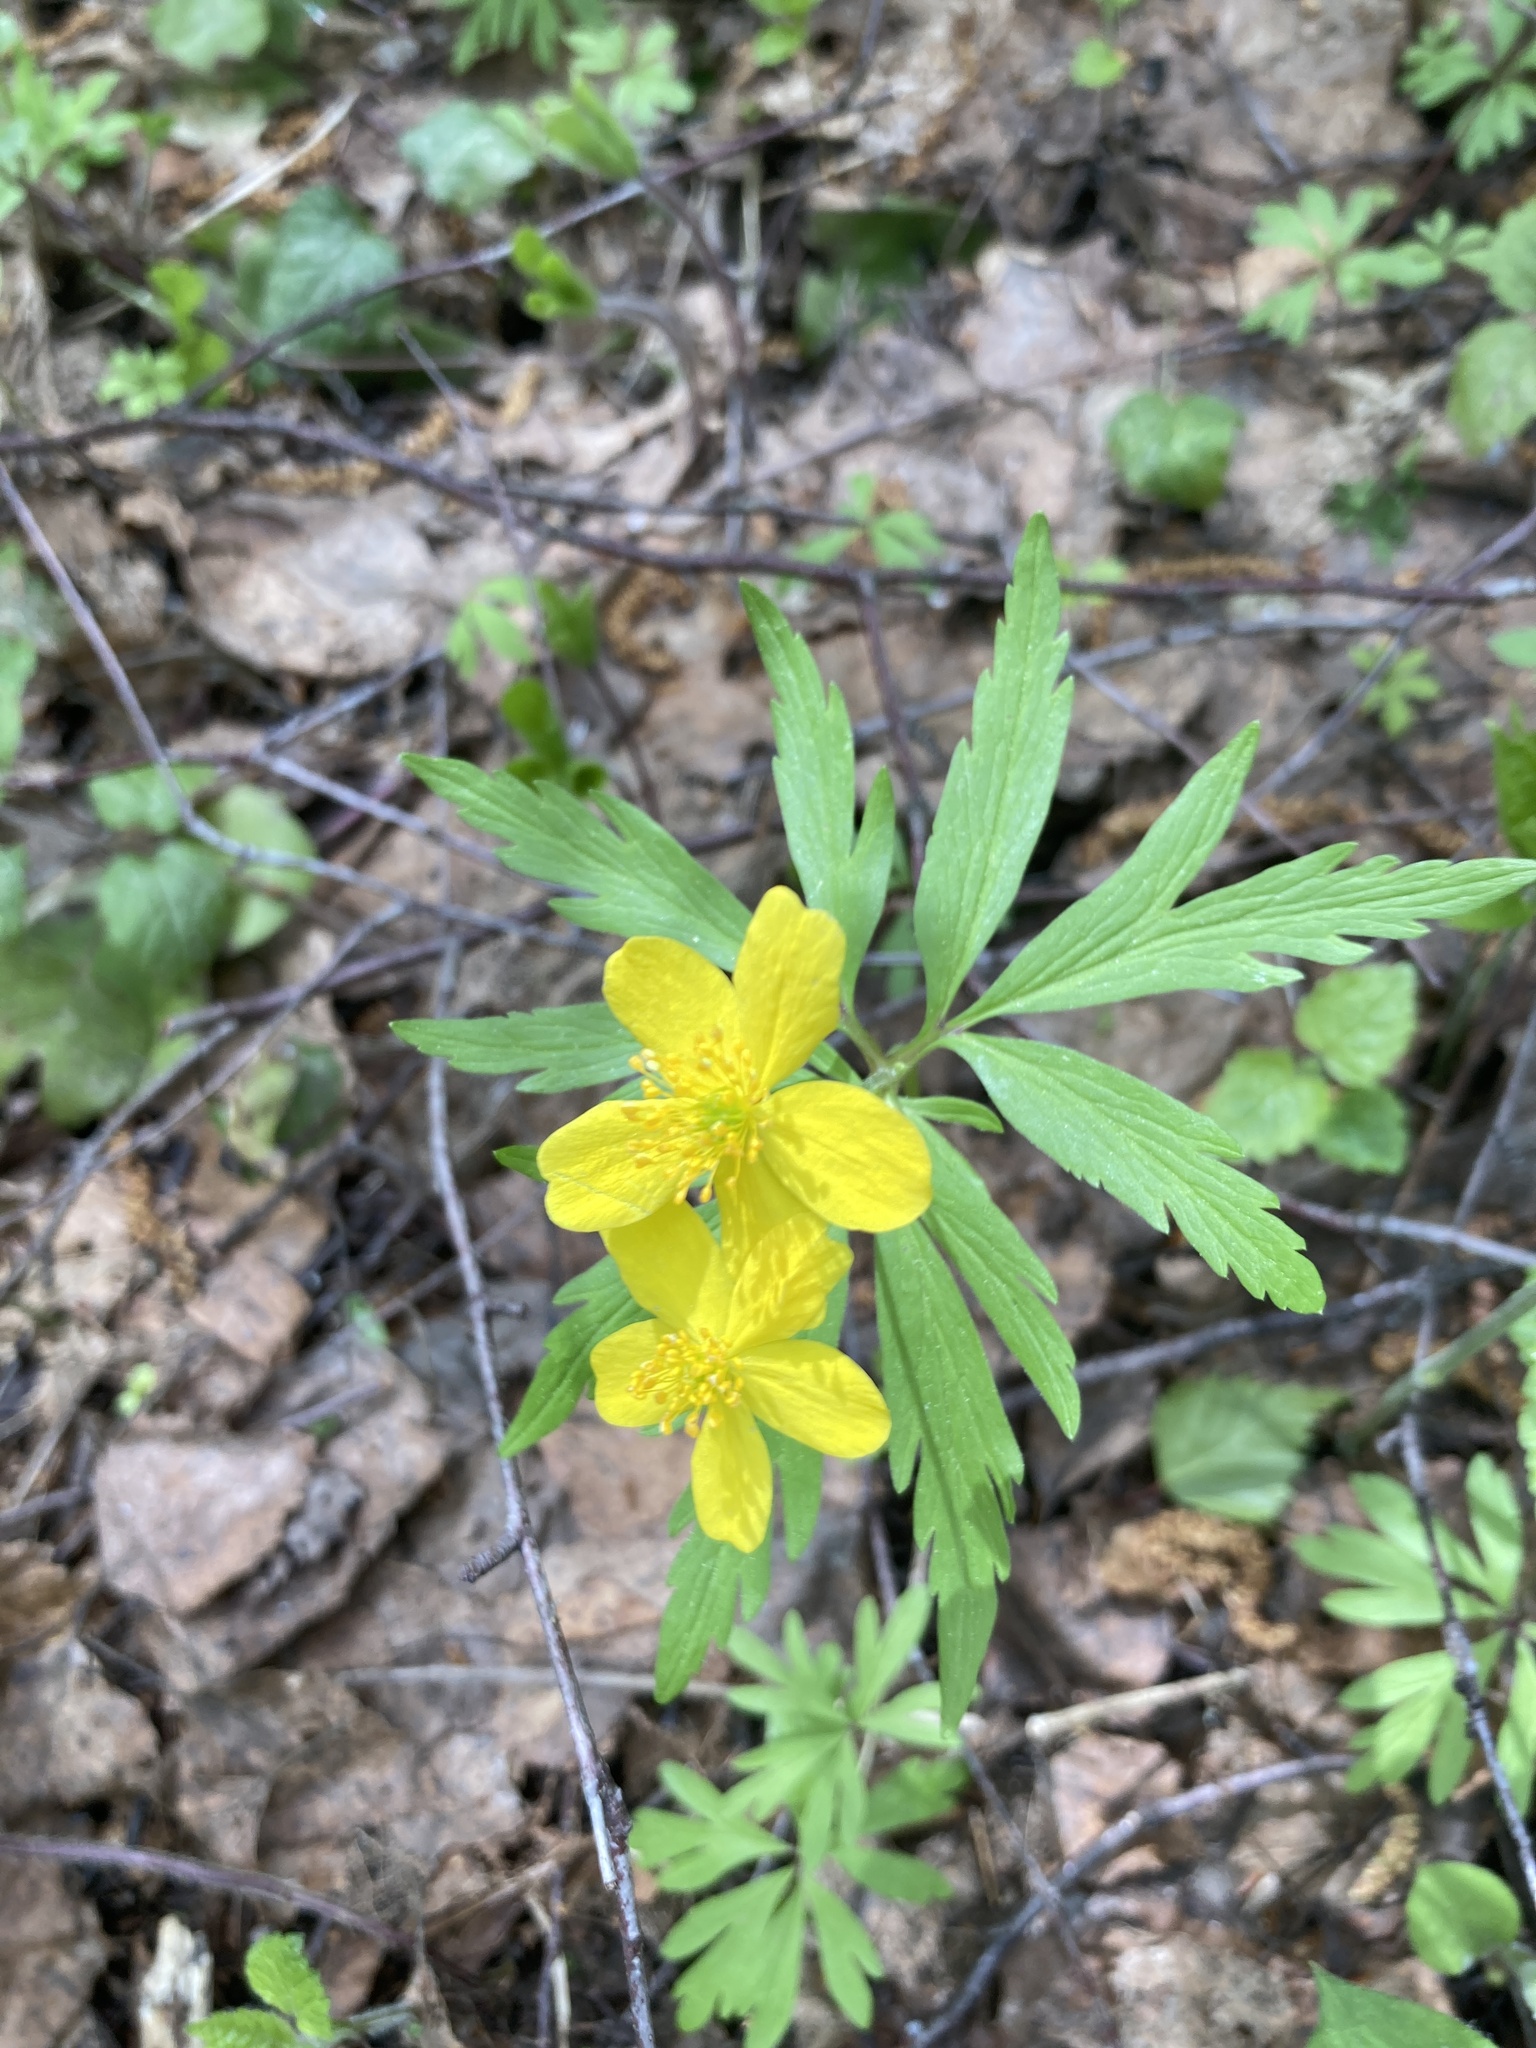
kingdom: Plantae
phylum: Tracheophyta
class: Magnoliopsida
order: Ranunculales
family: Ranunculaceae
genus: Anemone
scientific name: Anemone ranunculoides
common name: Yellow anemone
